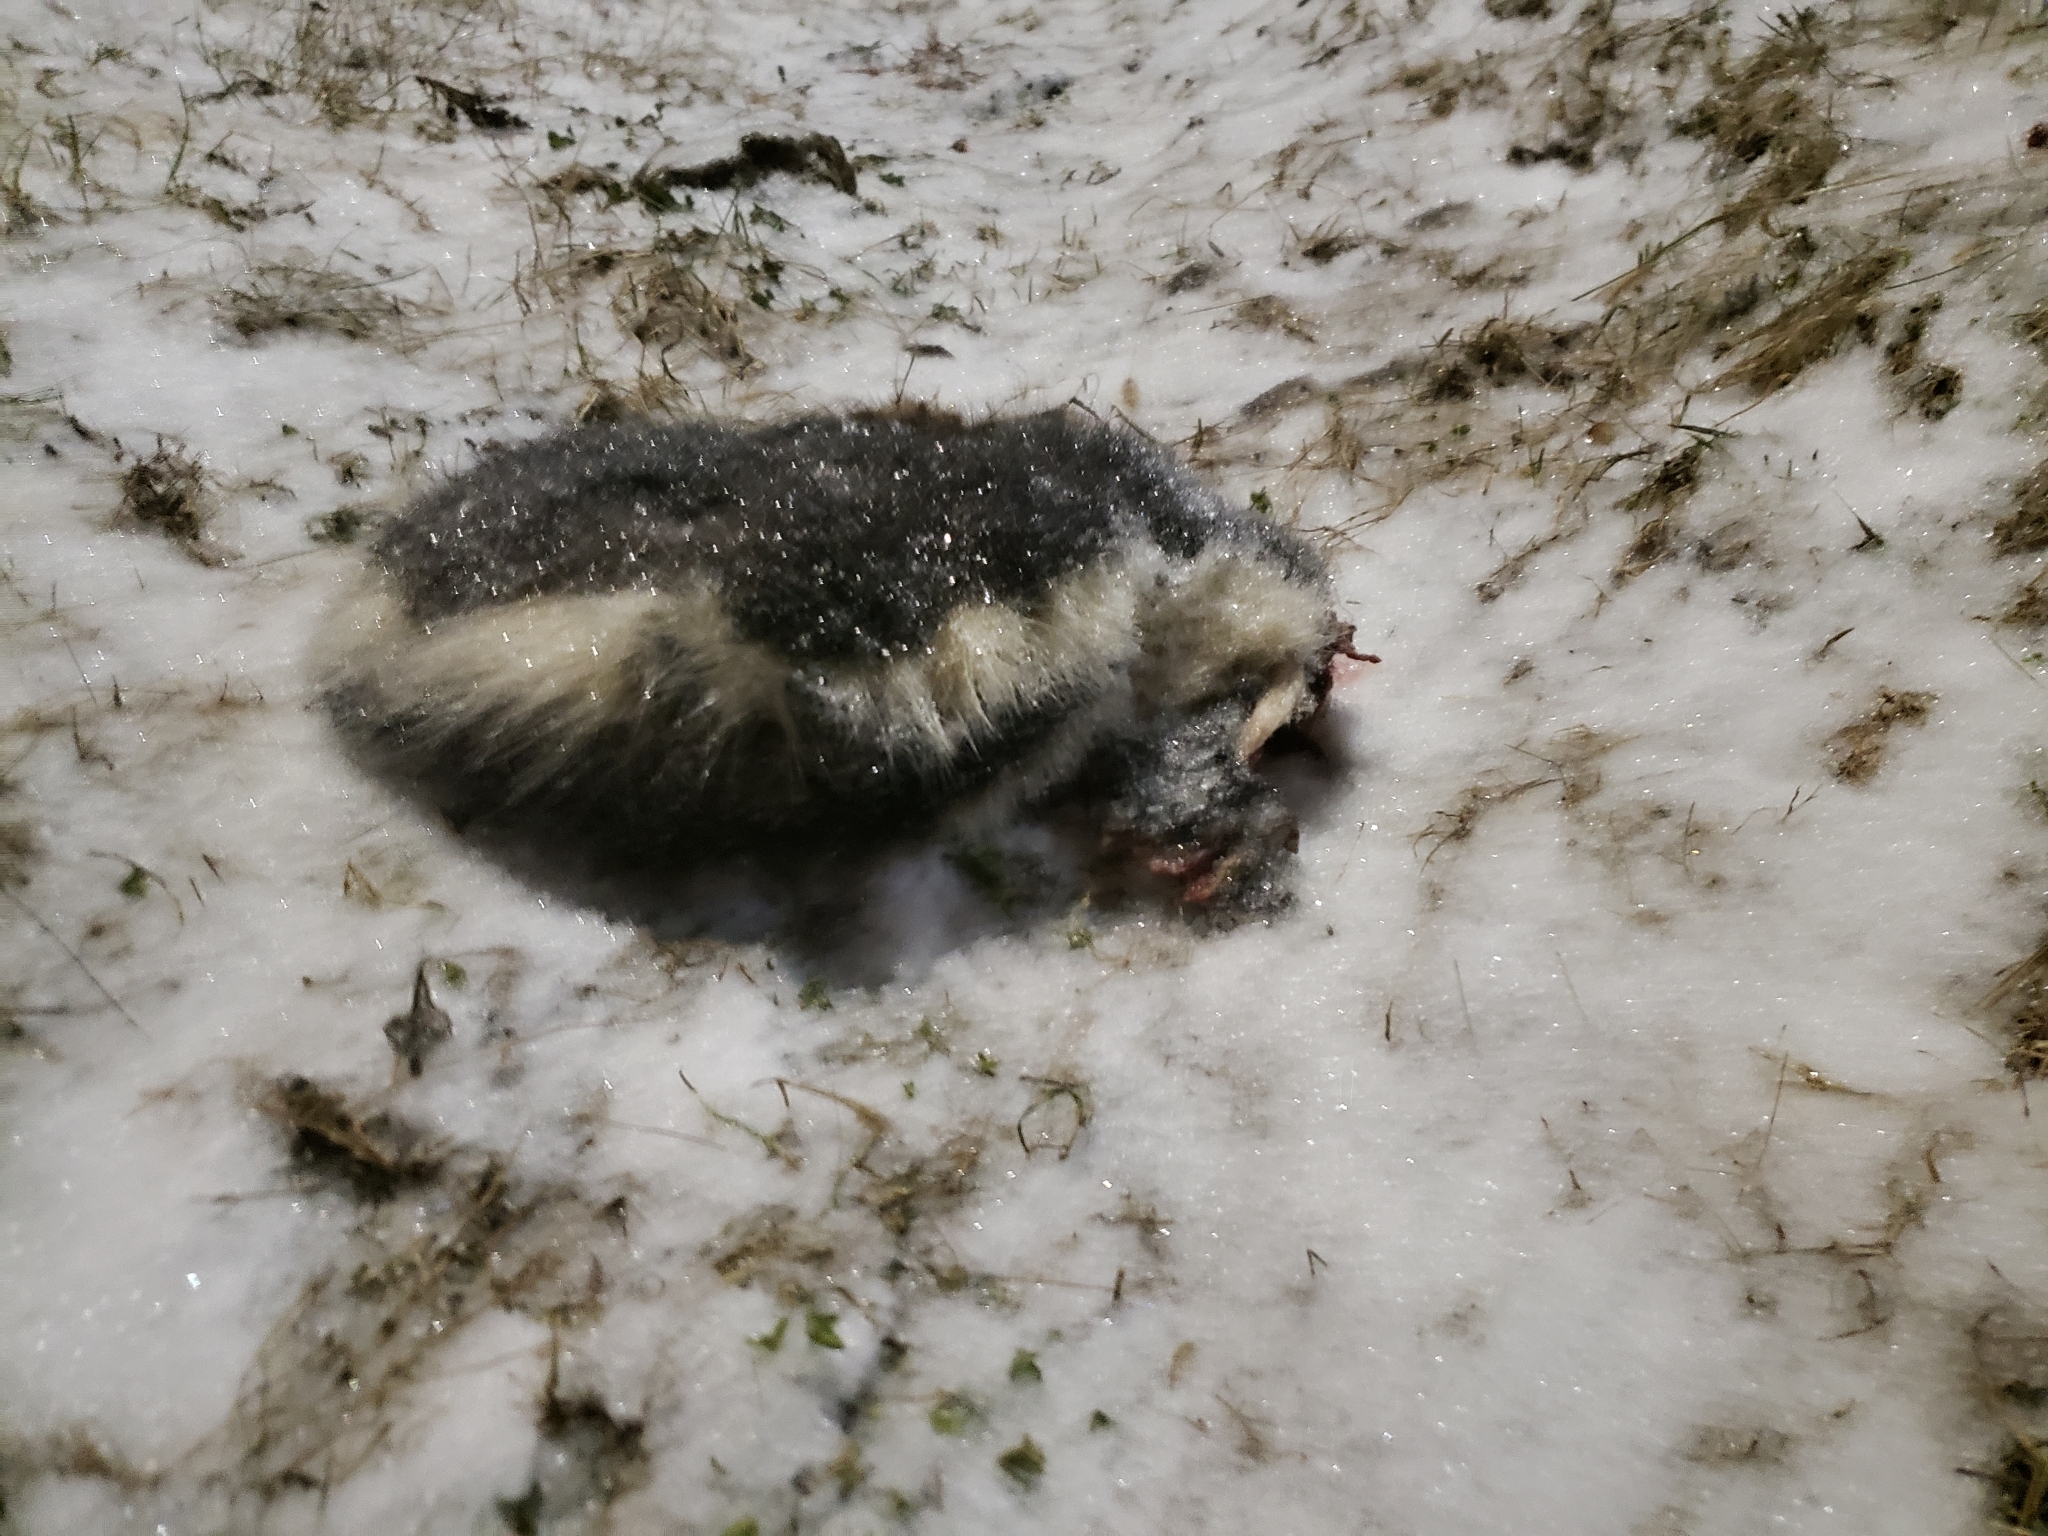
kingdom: Animalia
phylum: Chordata
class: Mammalia
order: Carnivora
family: Mephitidae
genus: Mephitis
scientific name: Mephitis mephitis
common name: Striped skunk
